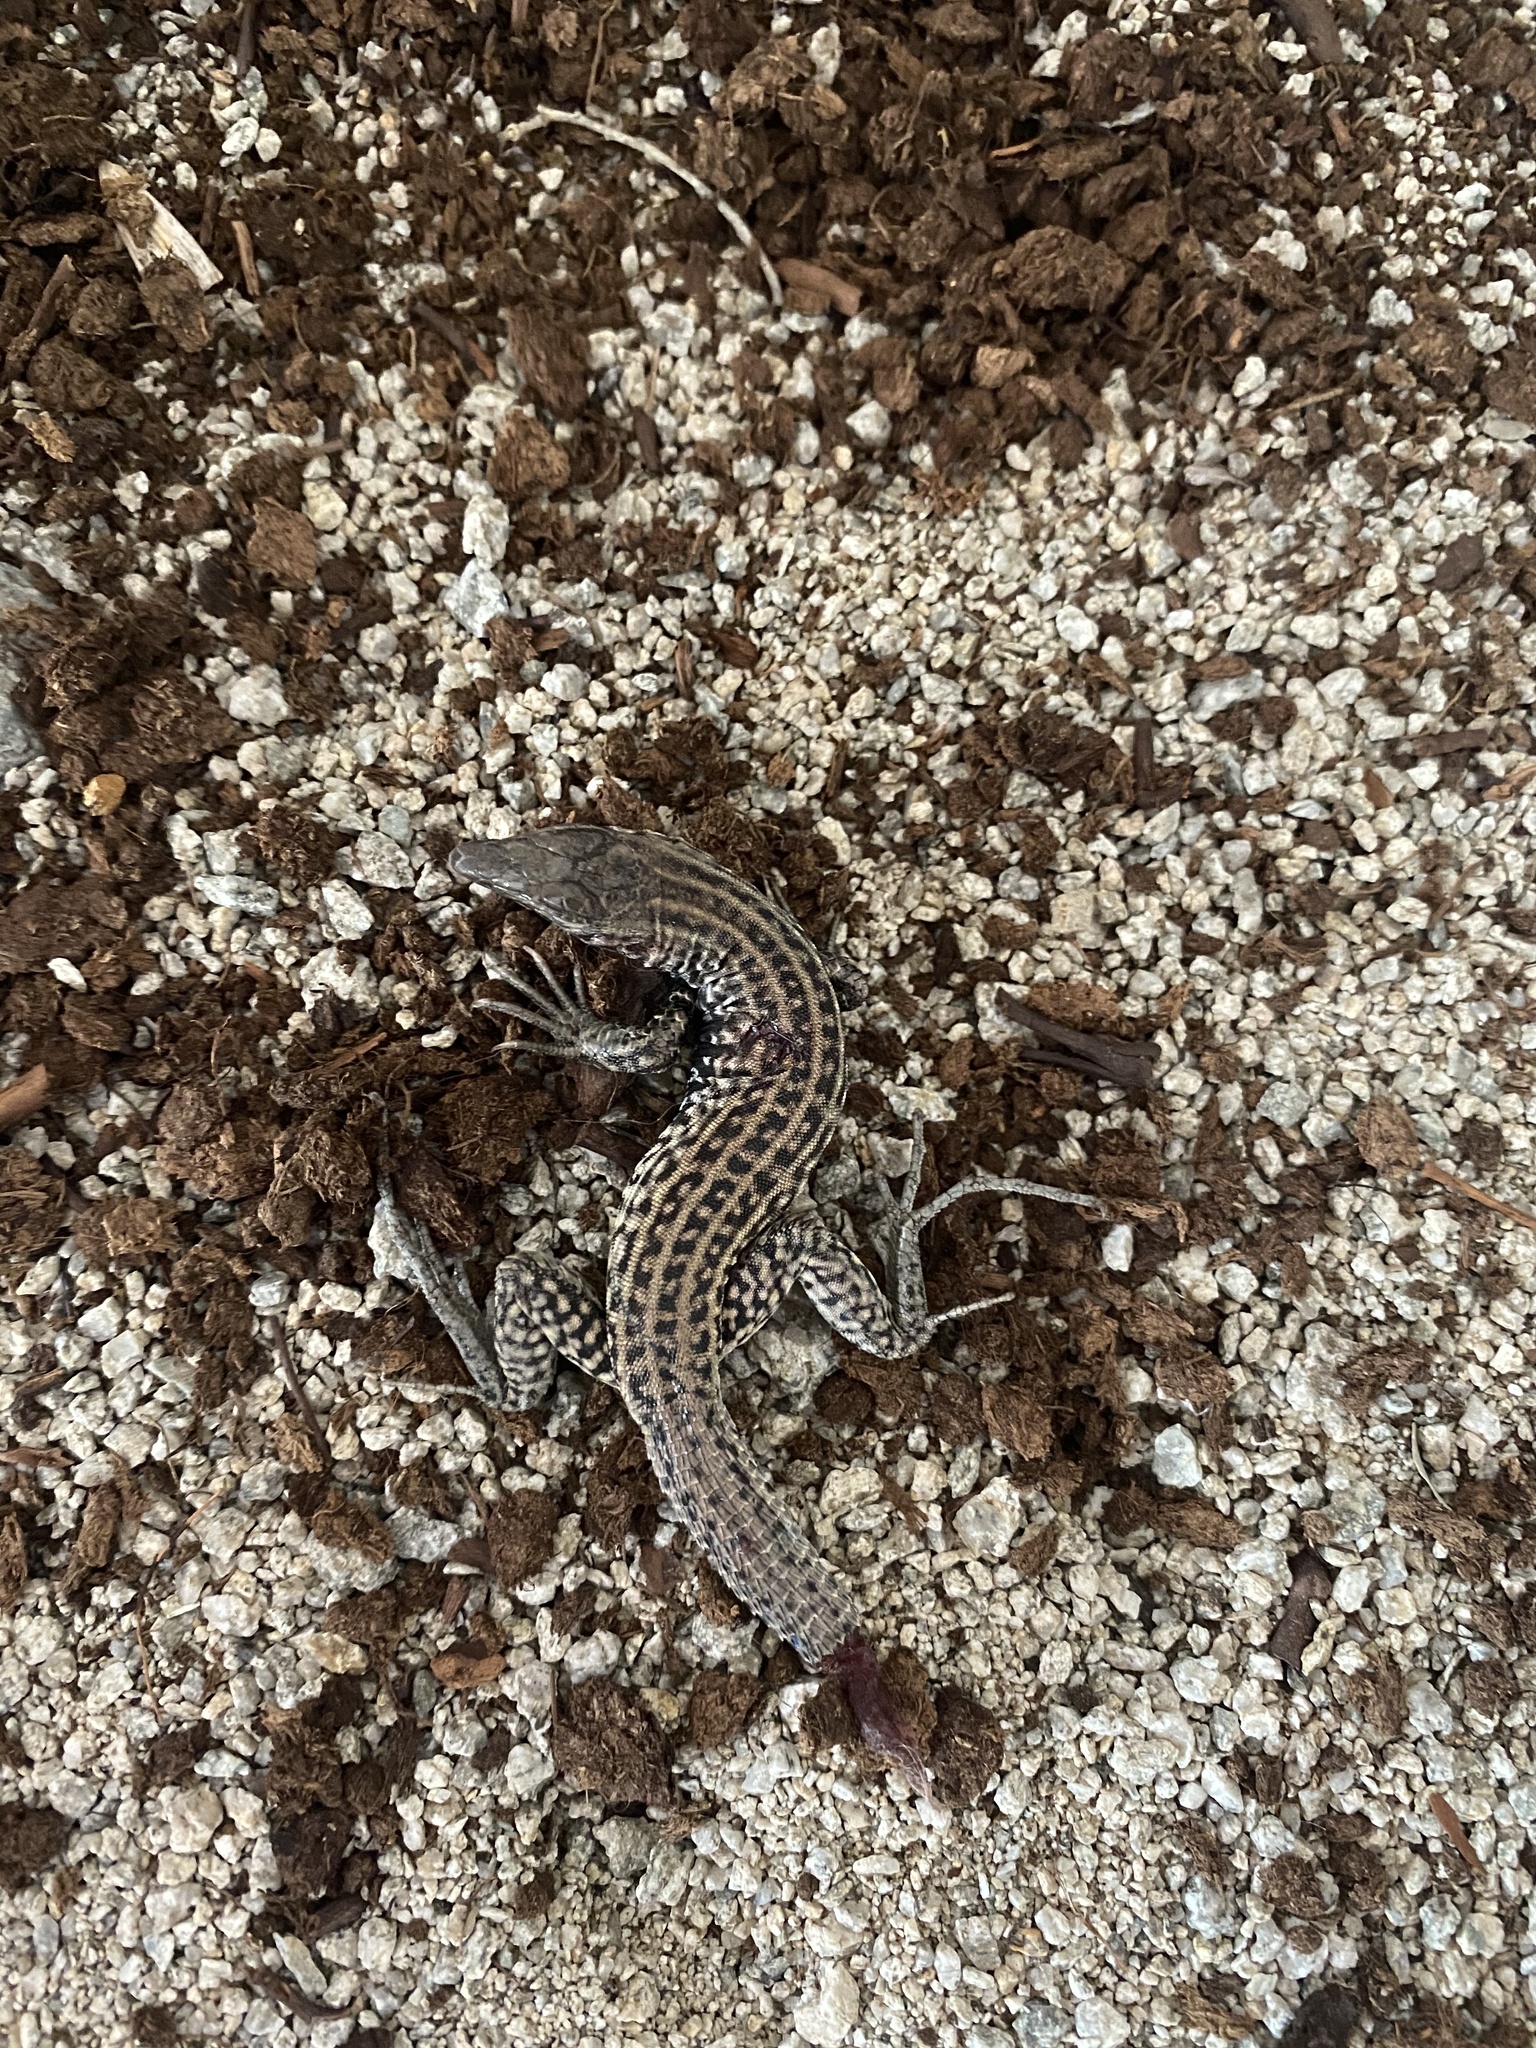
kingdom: Animalia
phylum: Chordata
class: Squamata
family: Teiidae
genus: Aspidoscelis
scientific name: Aspidoscelis tigris
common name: Tiger whiptail
